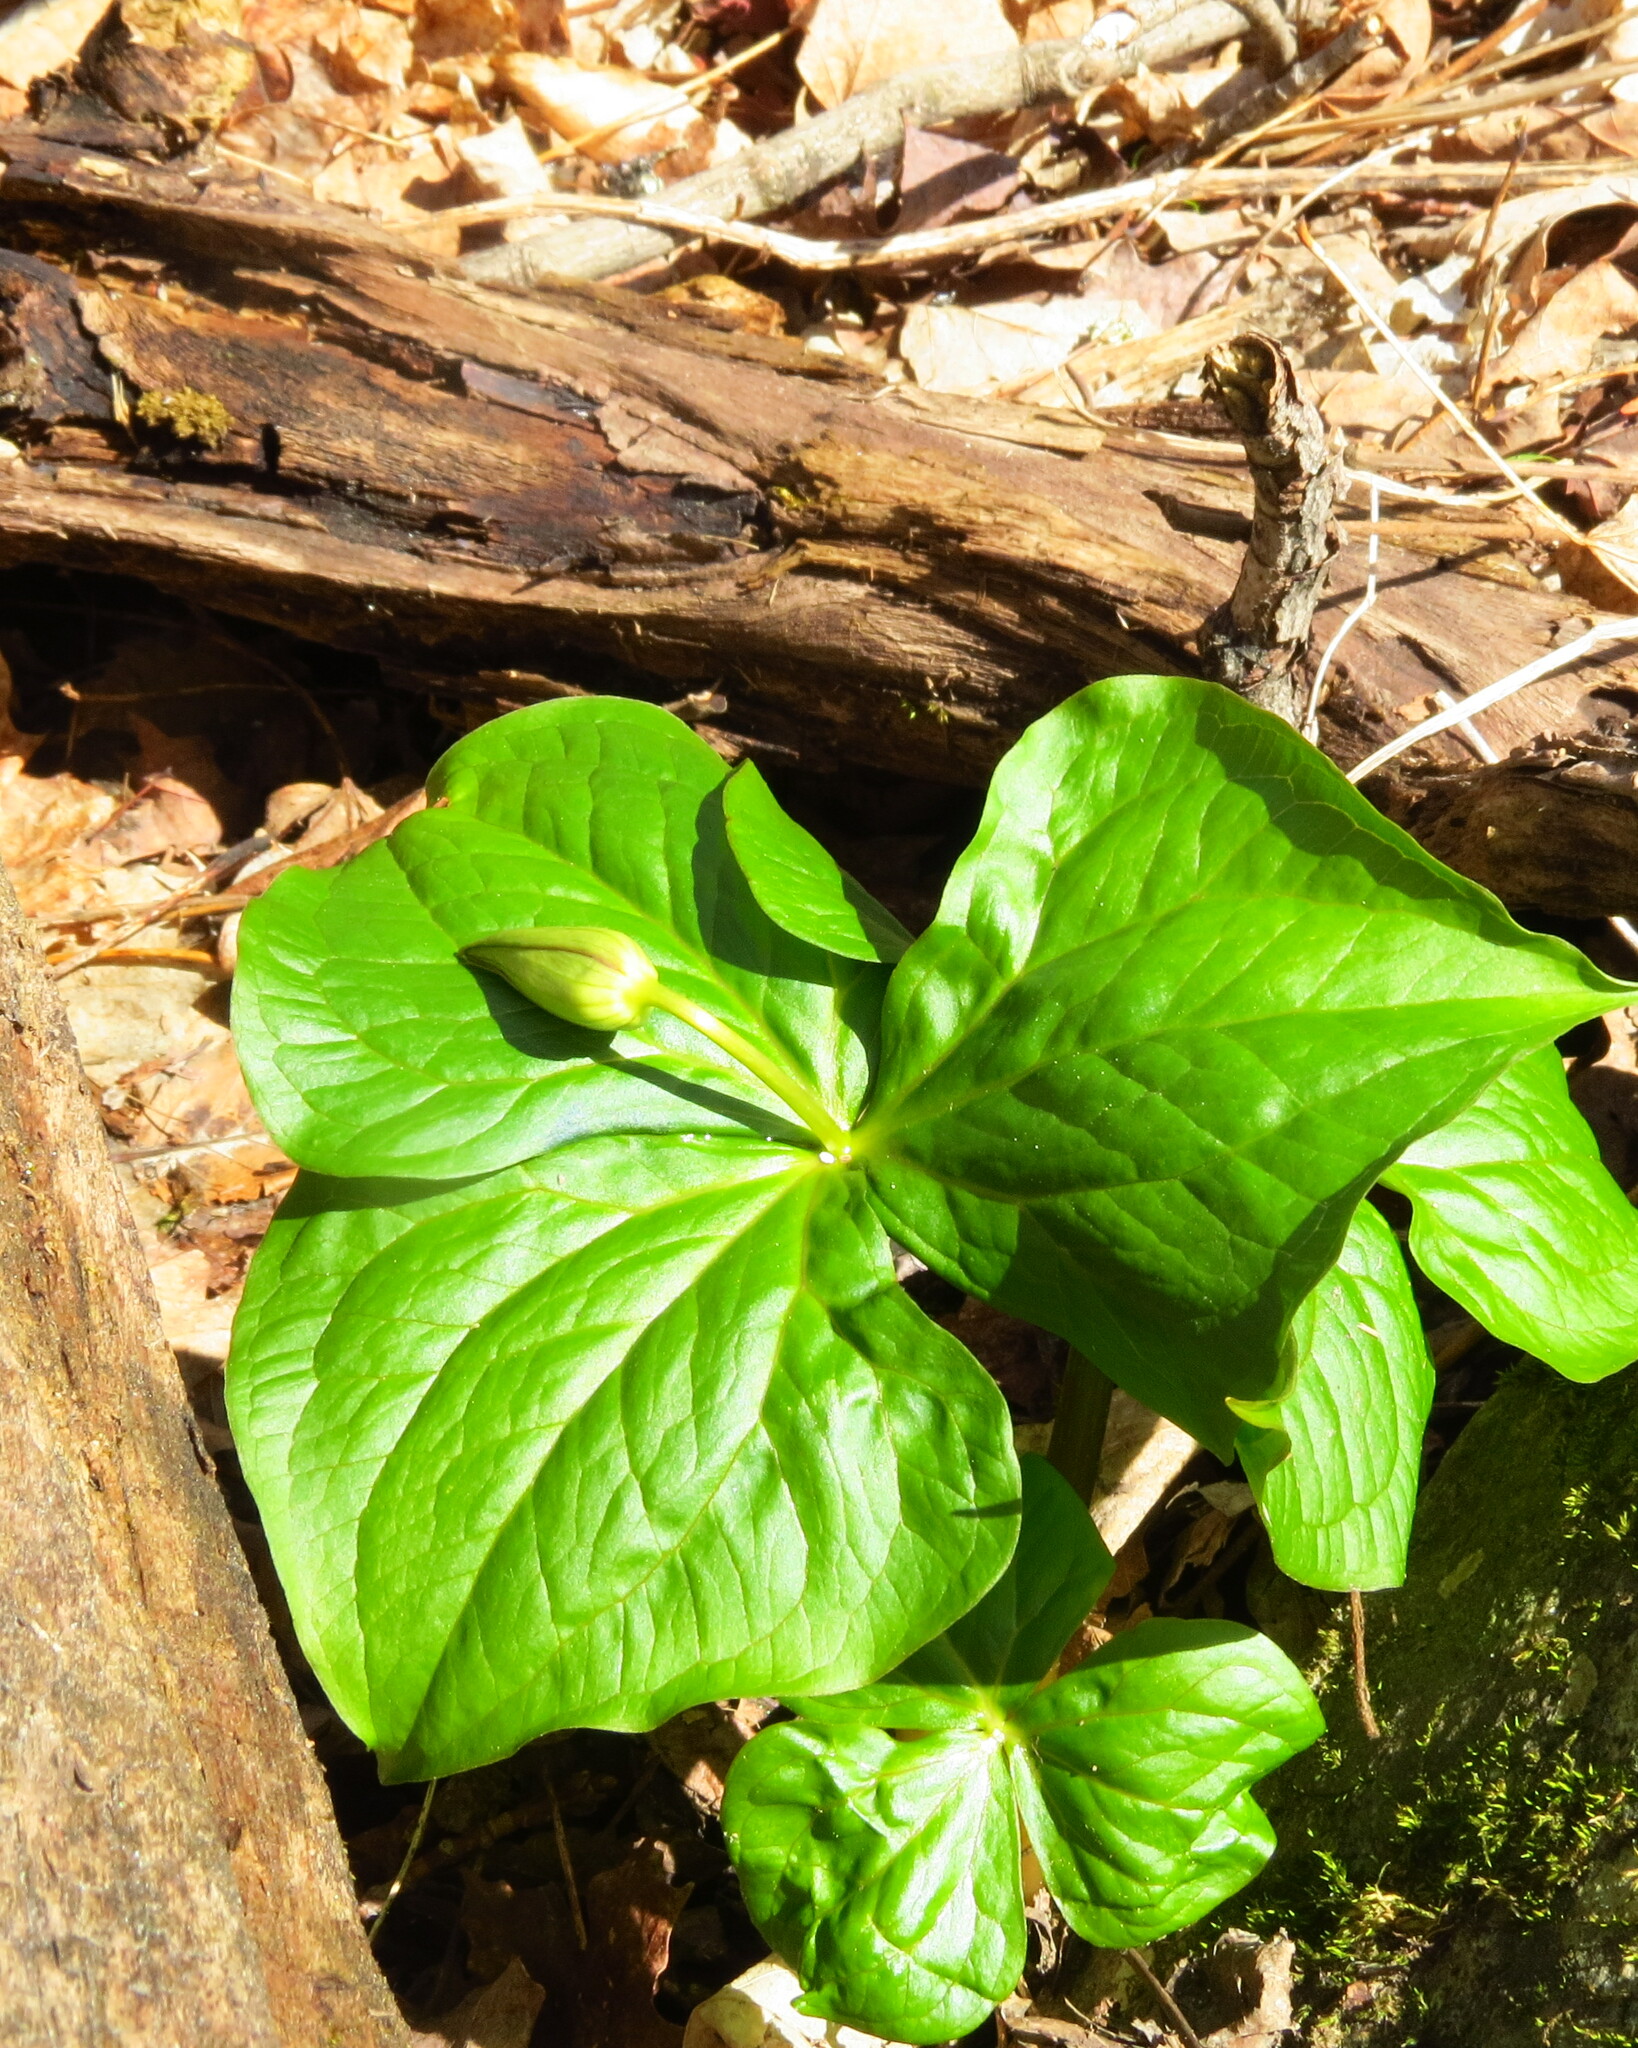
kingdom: Plantae
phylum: Tracheophyta
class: Liliopsida
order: Liliales
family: Melanthiaceae
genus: Trillium
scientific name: Trillium erectum
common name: Purple trillium
